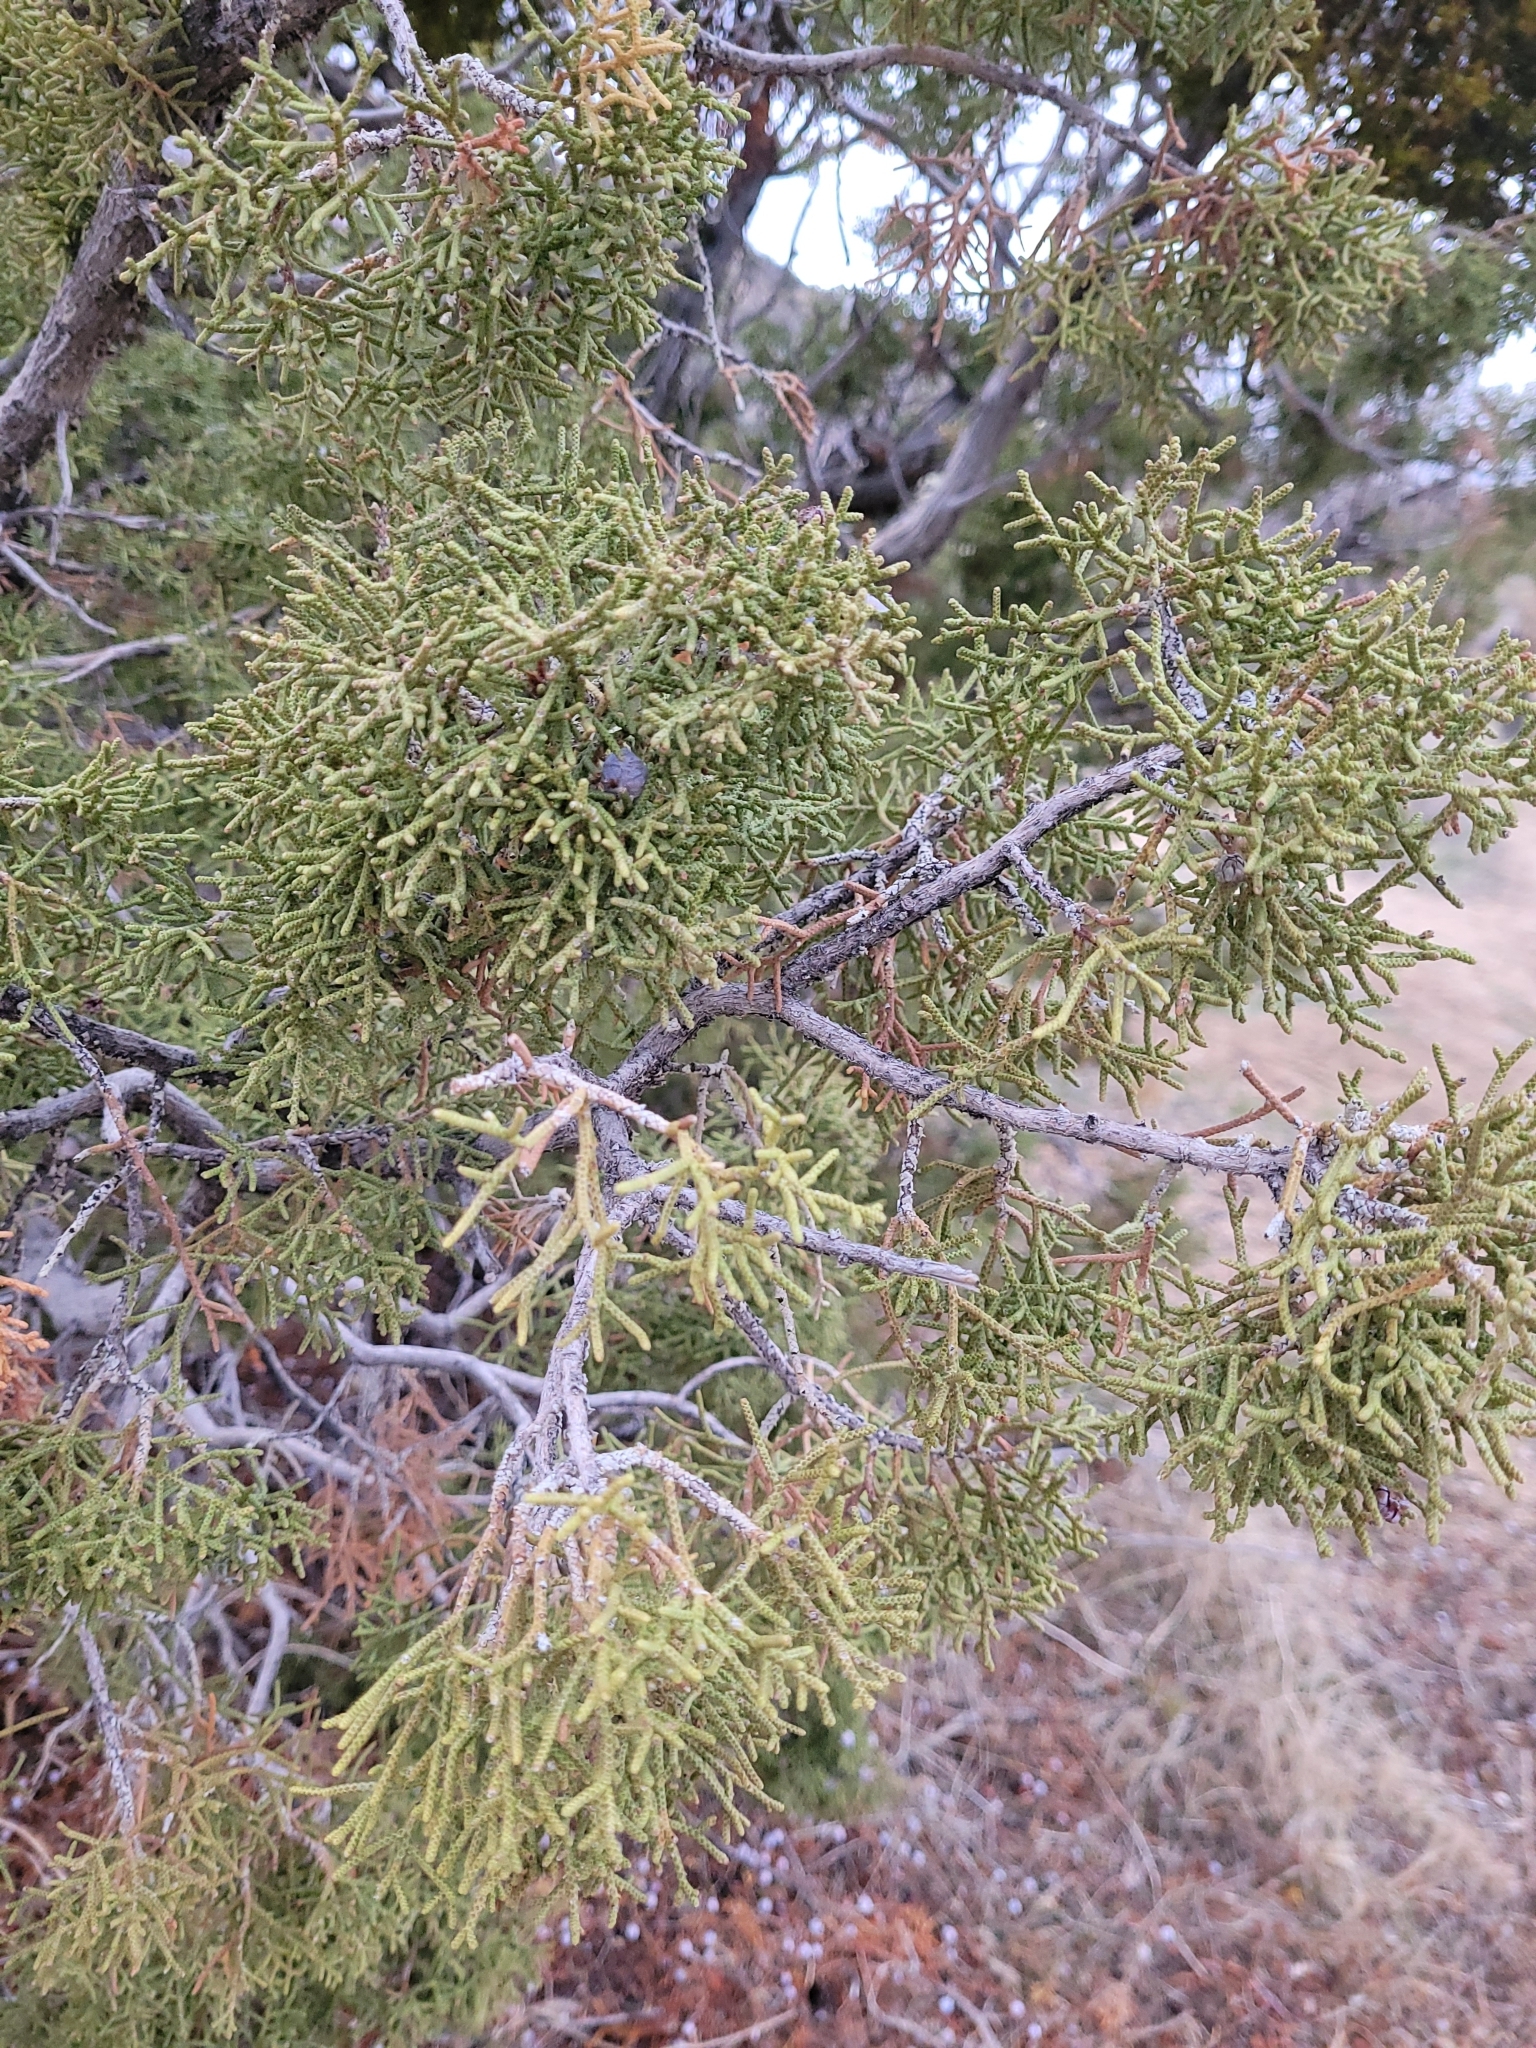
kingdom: Plantae
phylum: Tracheophyta
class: Pinopsida
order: Pinales
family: Cupressaceae
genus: Juniperus
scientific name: Juniperus californica
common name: California juniper
